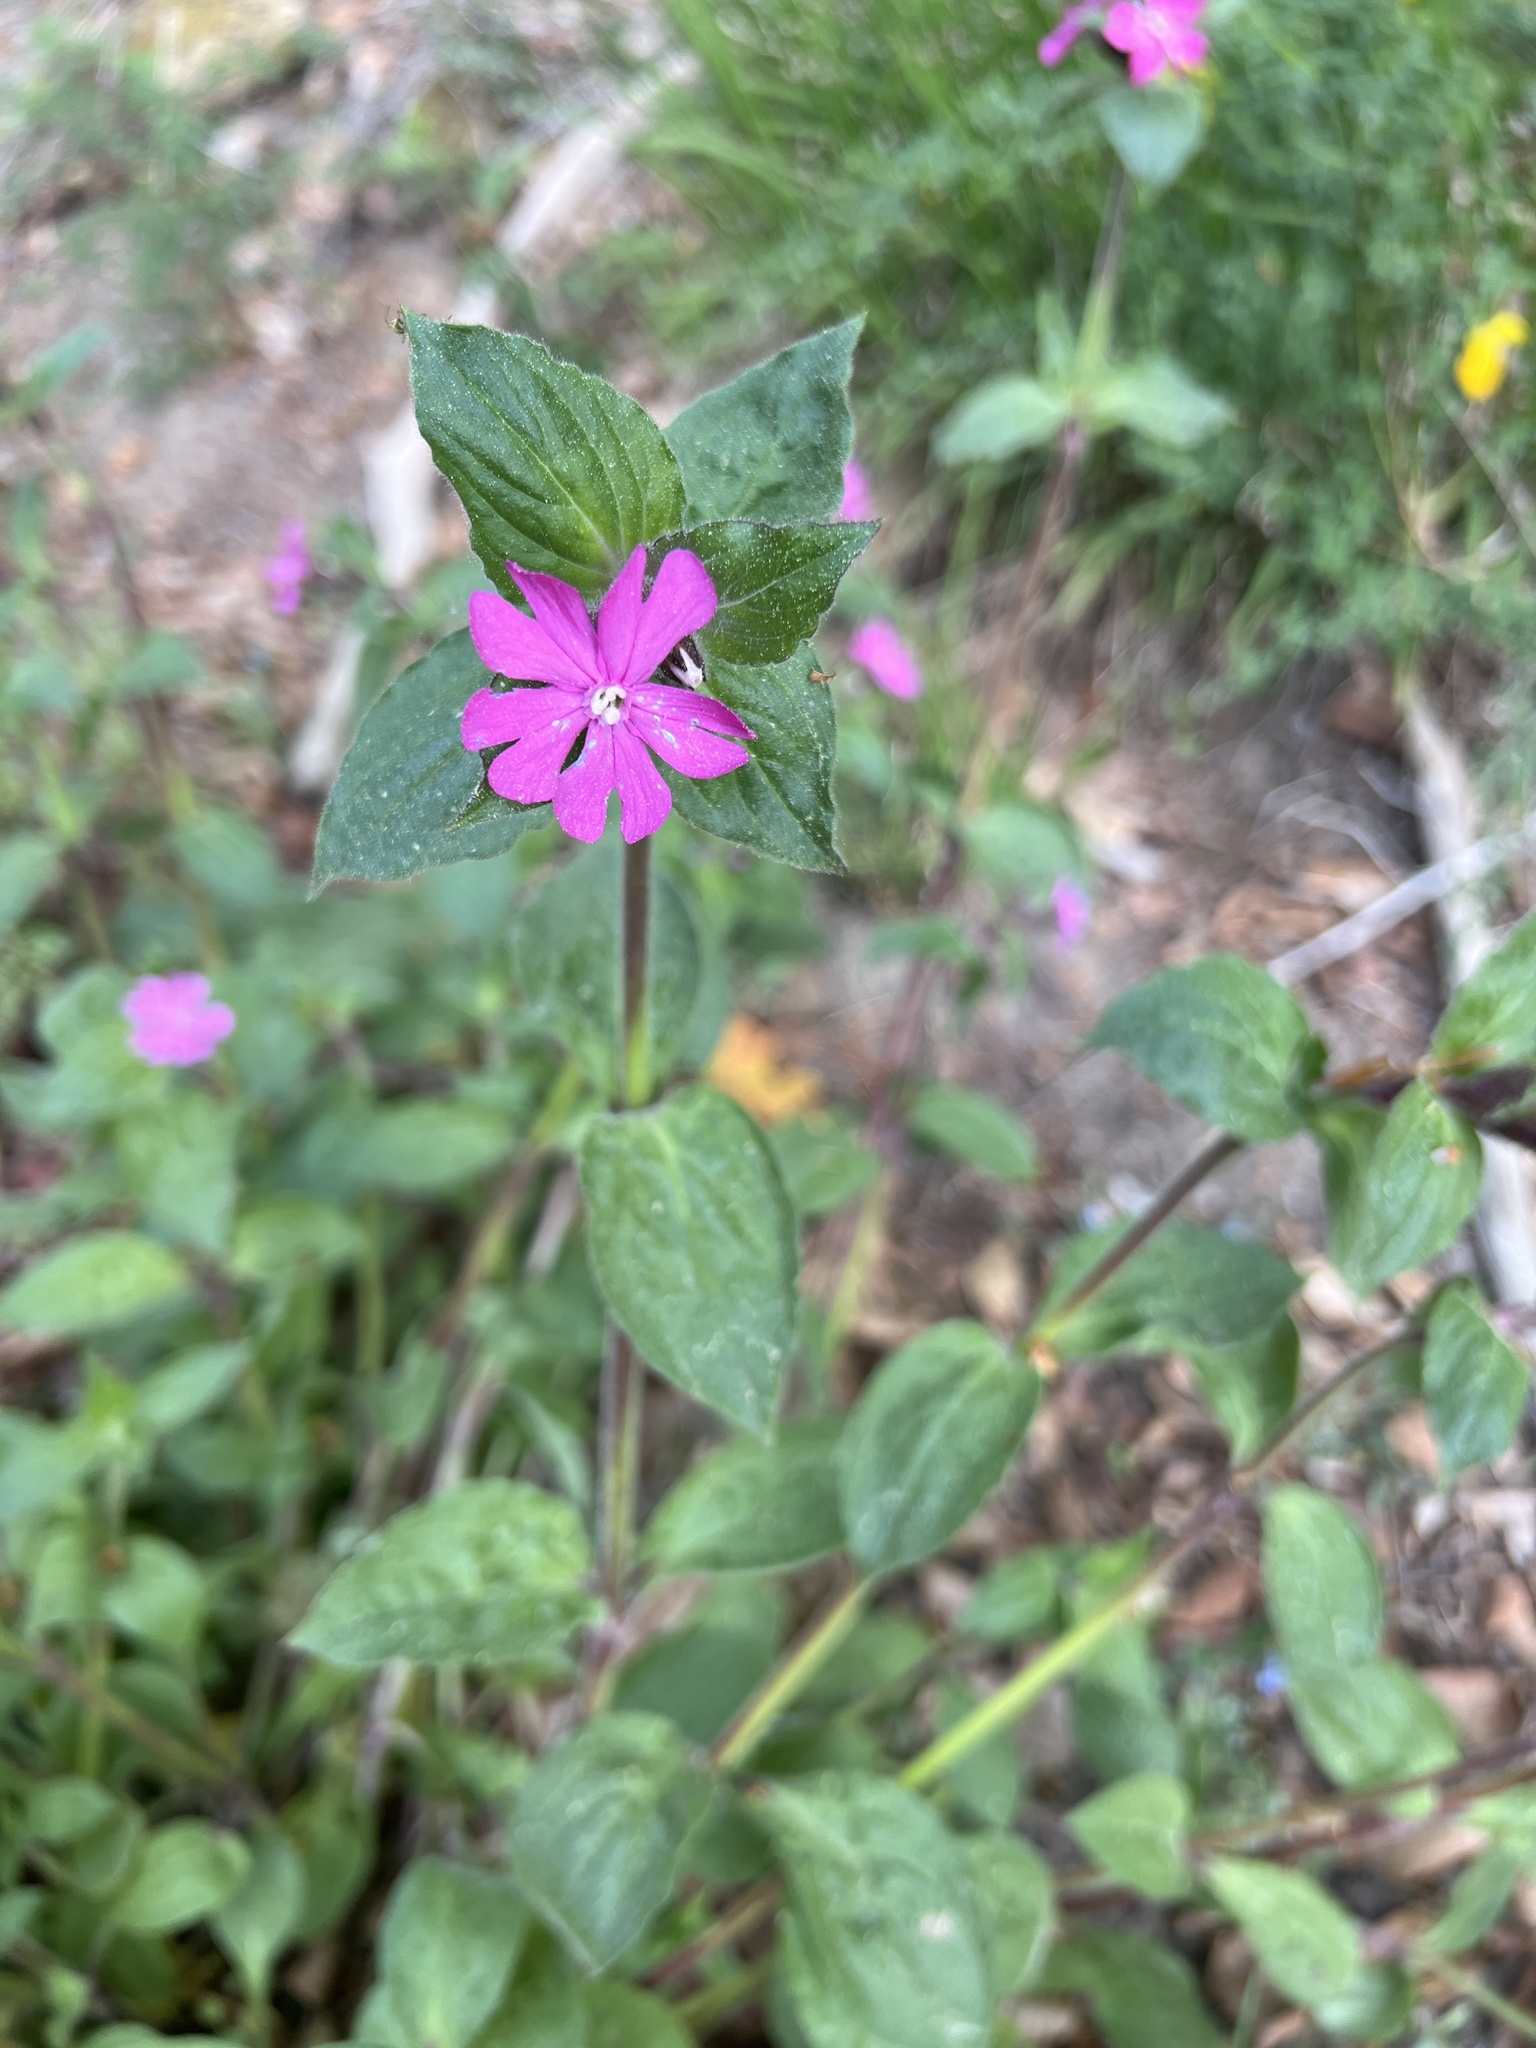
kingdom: Plantae
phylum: Tracheophyta
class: Magnoliopsida
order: Caryophyllales
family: Caryophyllaceae
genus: Silene
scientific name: Silene dioica
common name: Red campion
